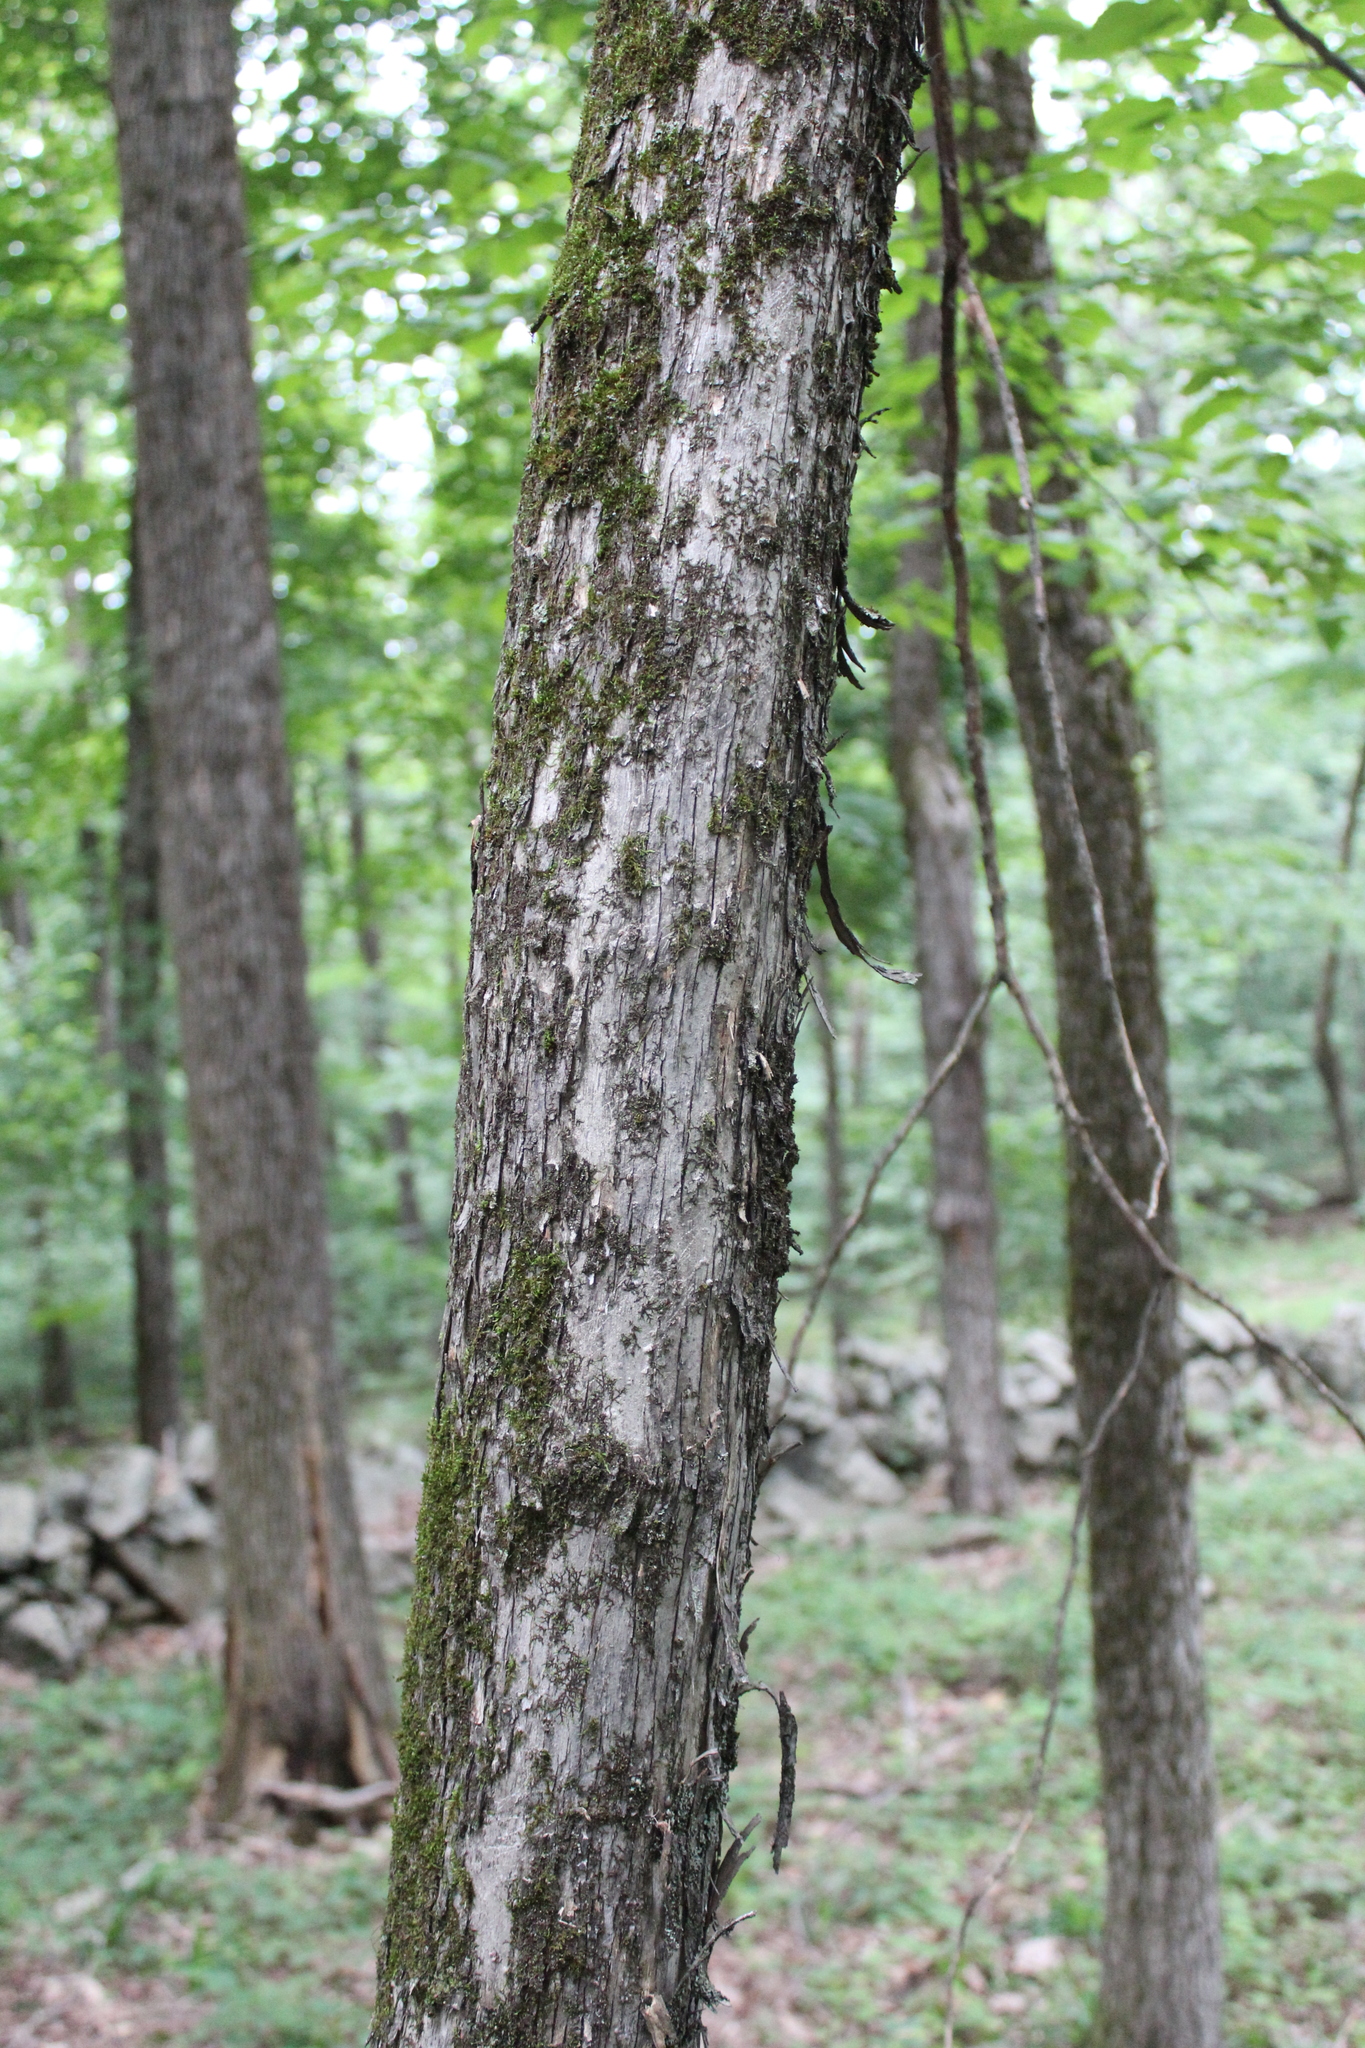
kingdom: Plantae
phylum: Tracheophyta
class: Magnoliopsida
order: Fagales
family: Betulaceae
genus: Ostrya
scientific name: Ostrya virginiana
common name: Ironwood
